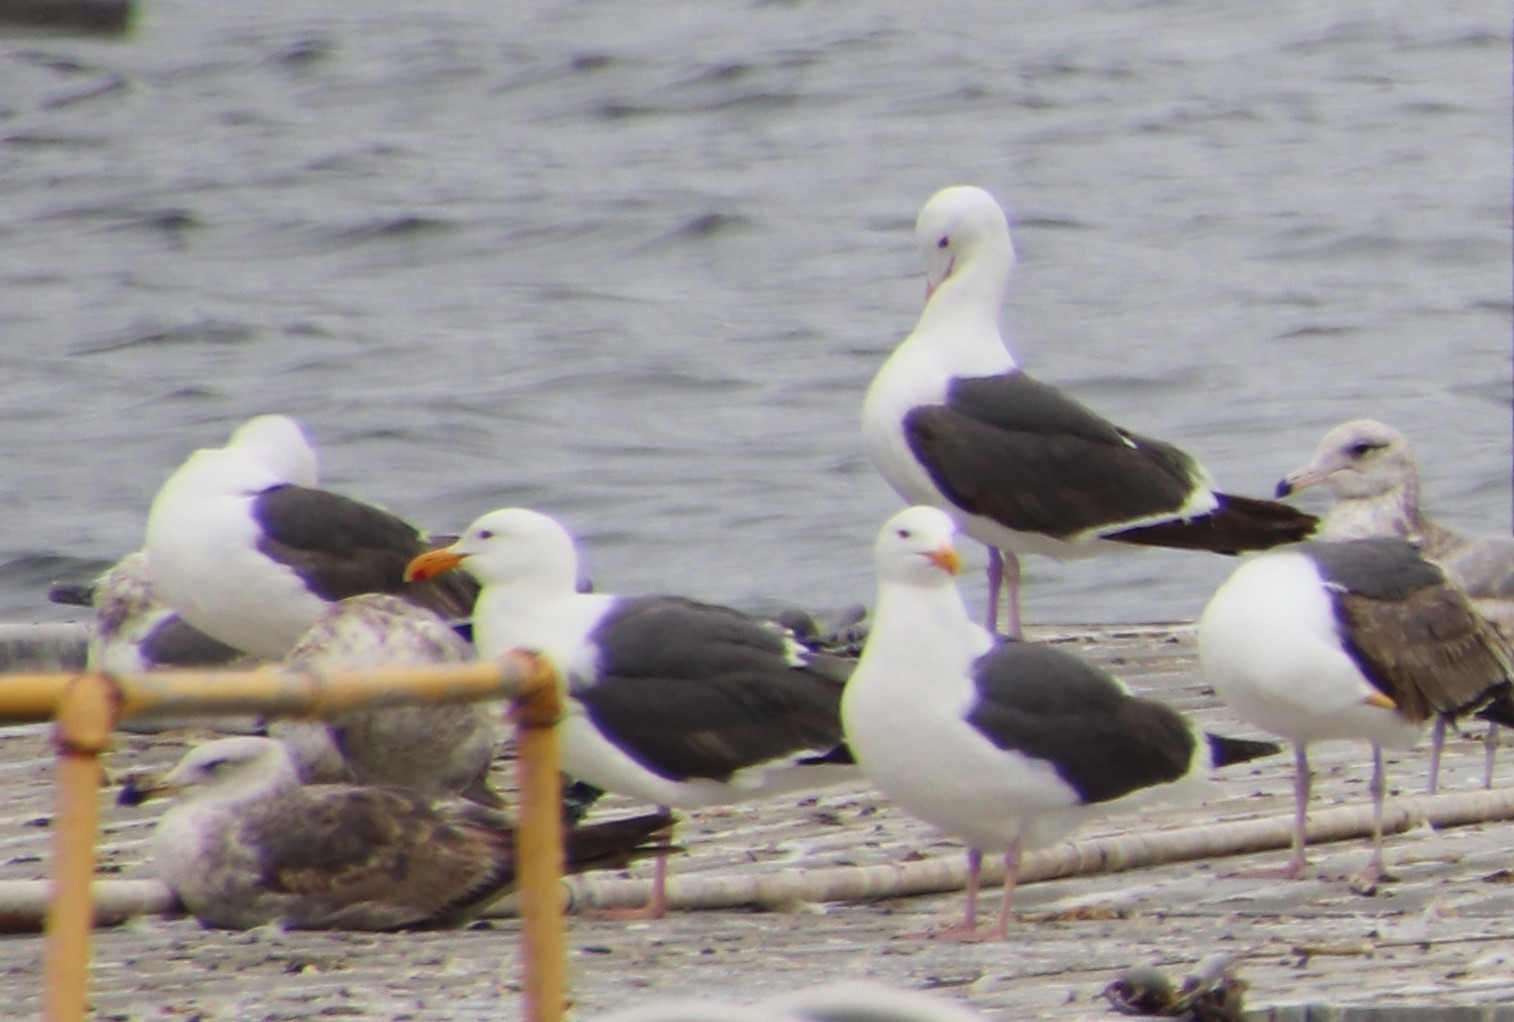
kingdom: Animalia
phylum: Chordata
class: Aves
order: Charadriiformes
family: Laridae
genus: Larus
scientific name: Larus occidentalis
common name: Western gull
